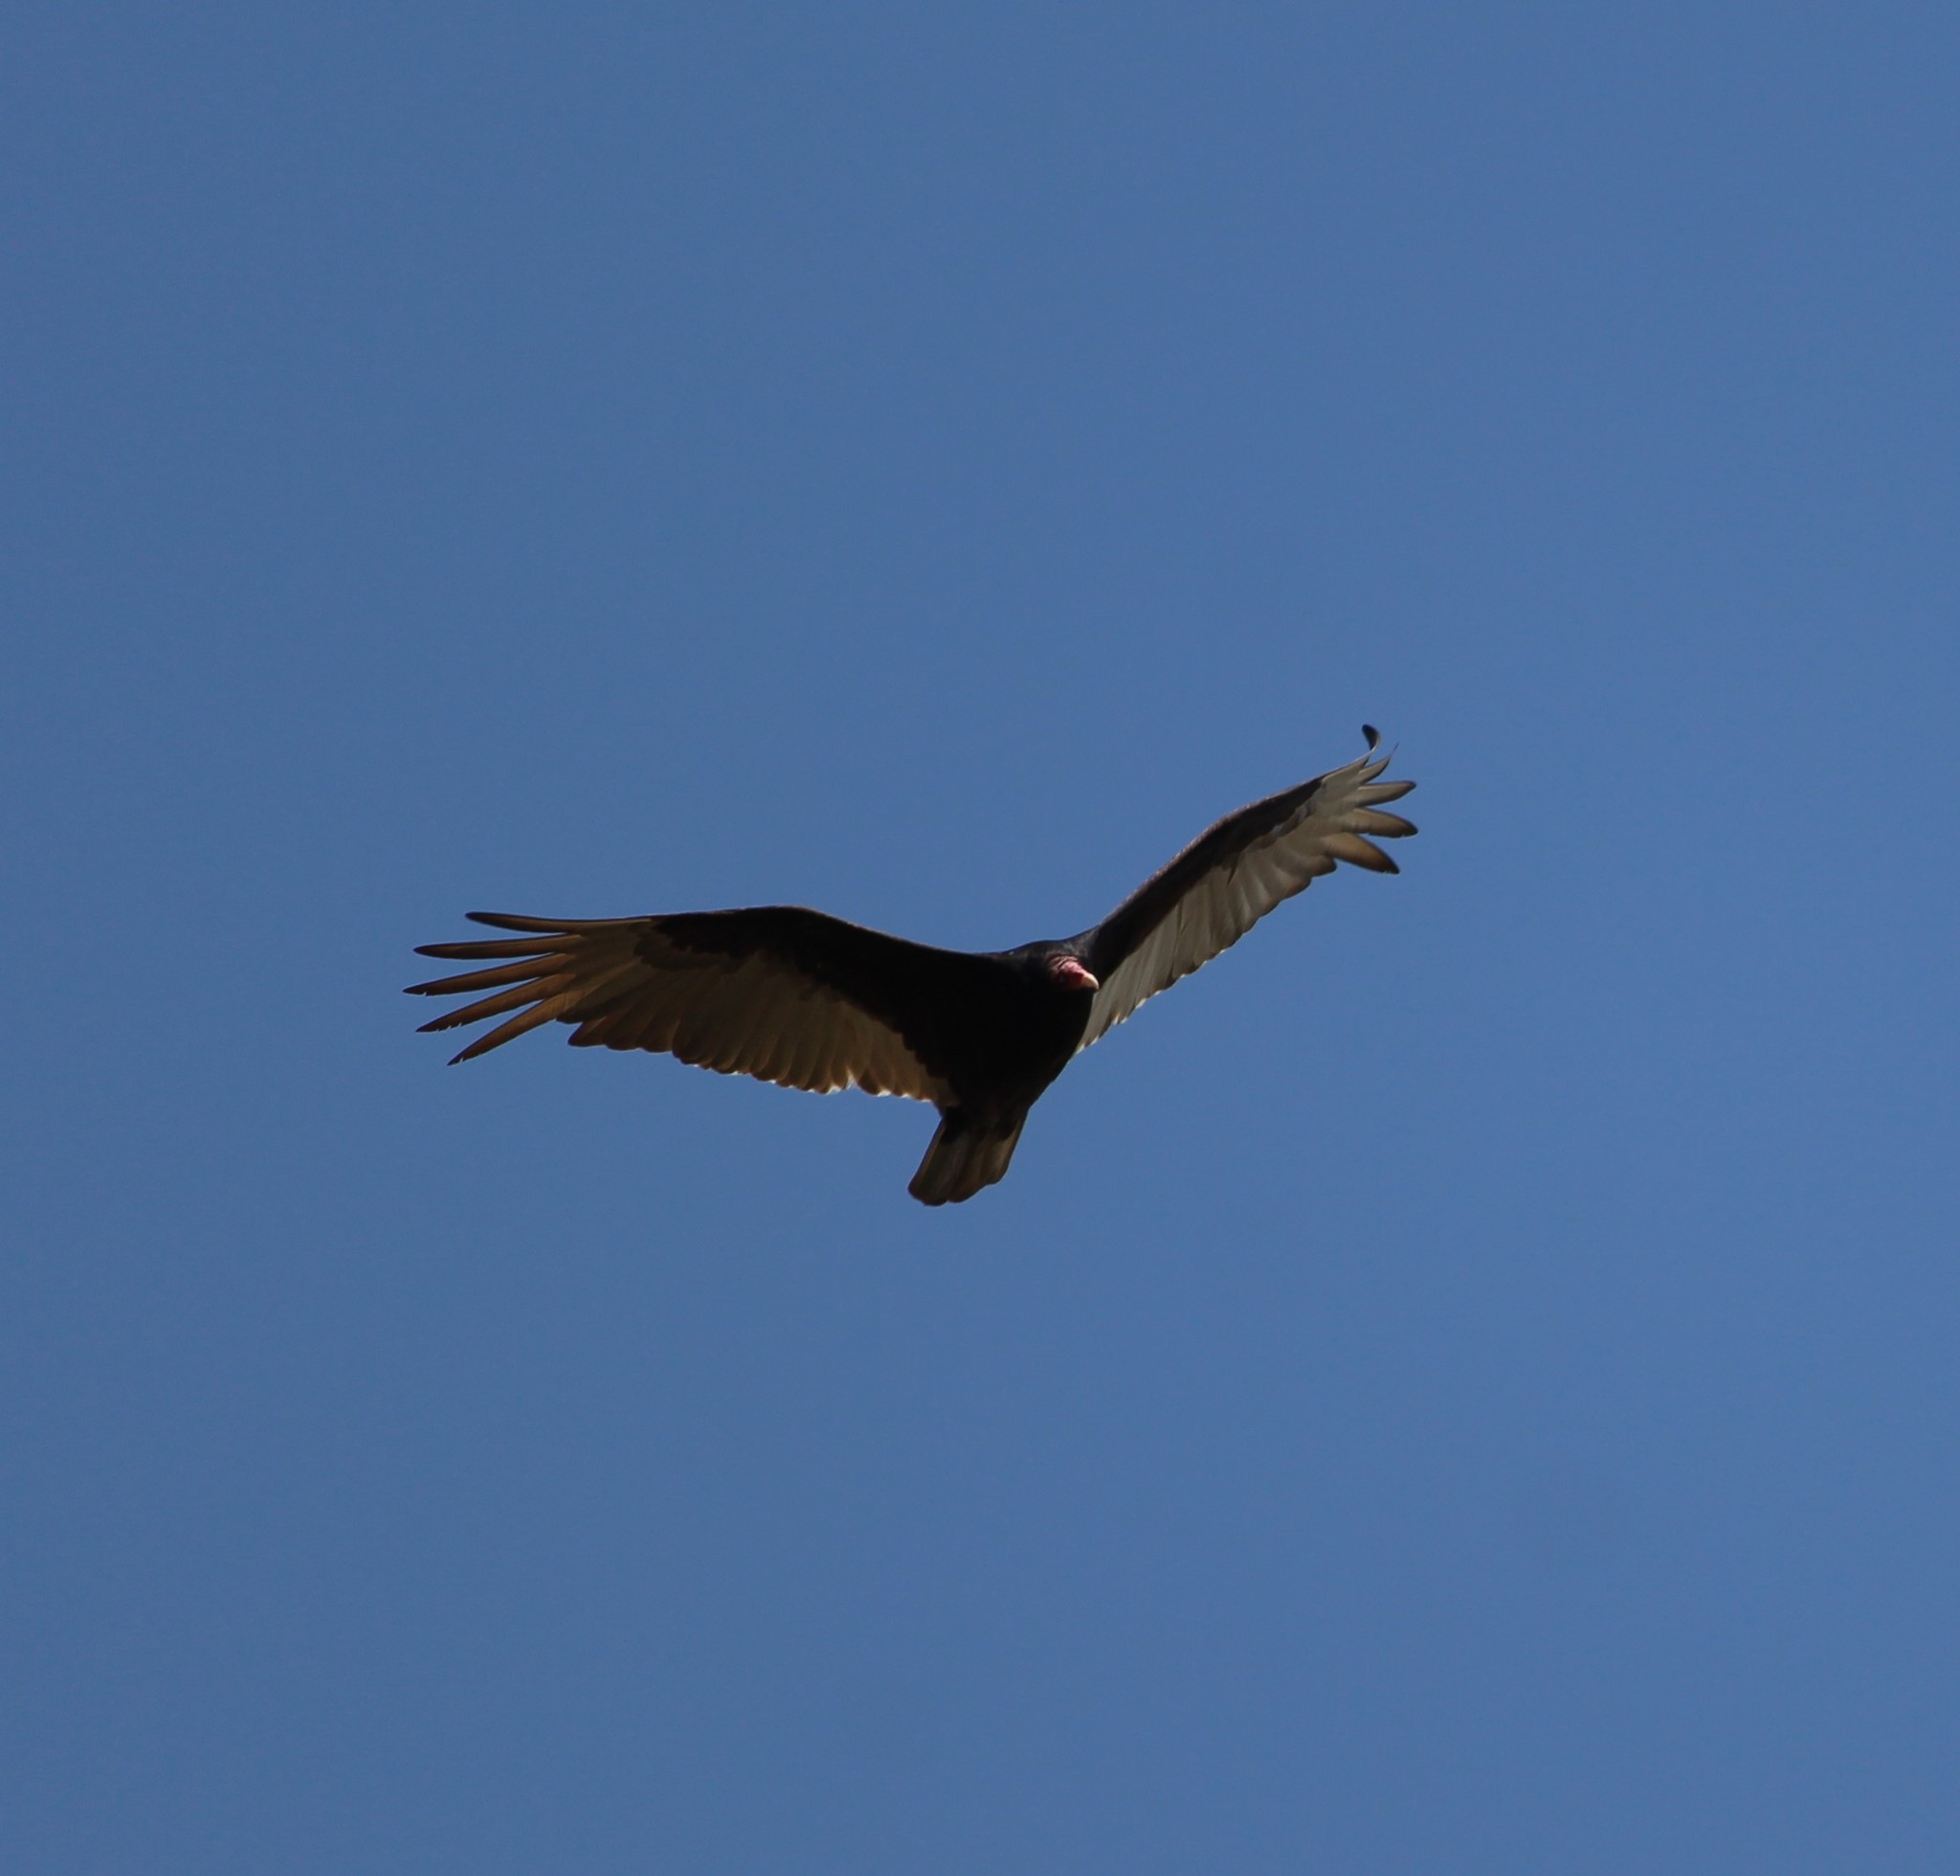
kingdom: Animalia
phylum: Chordata
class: Aves
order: Accipitriformes
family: Cathartidae
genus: Cathartes
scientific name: Cathartes aura
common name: Turkey vulture
